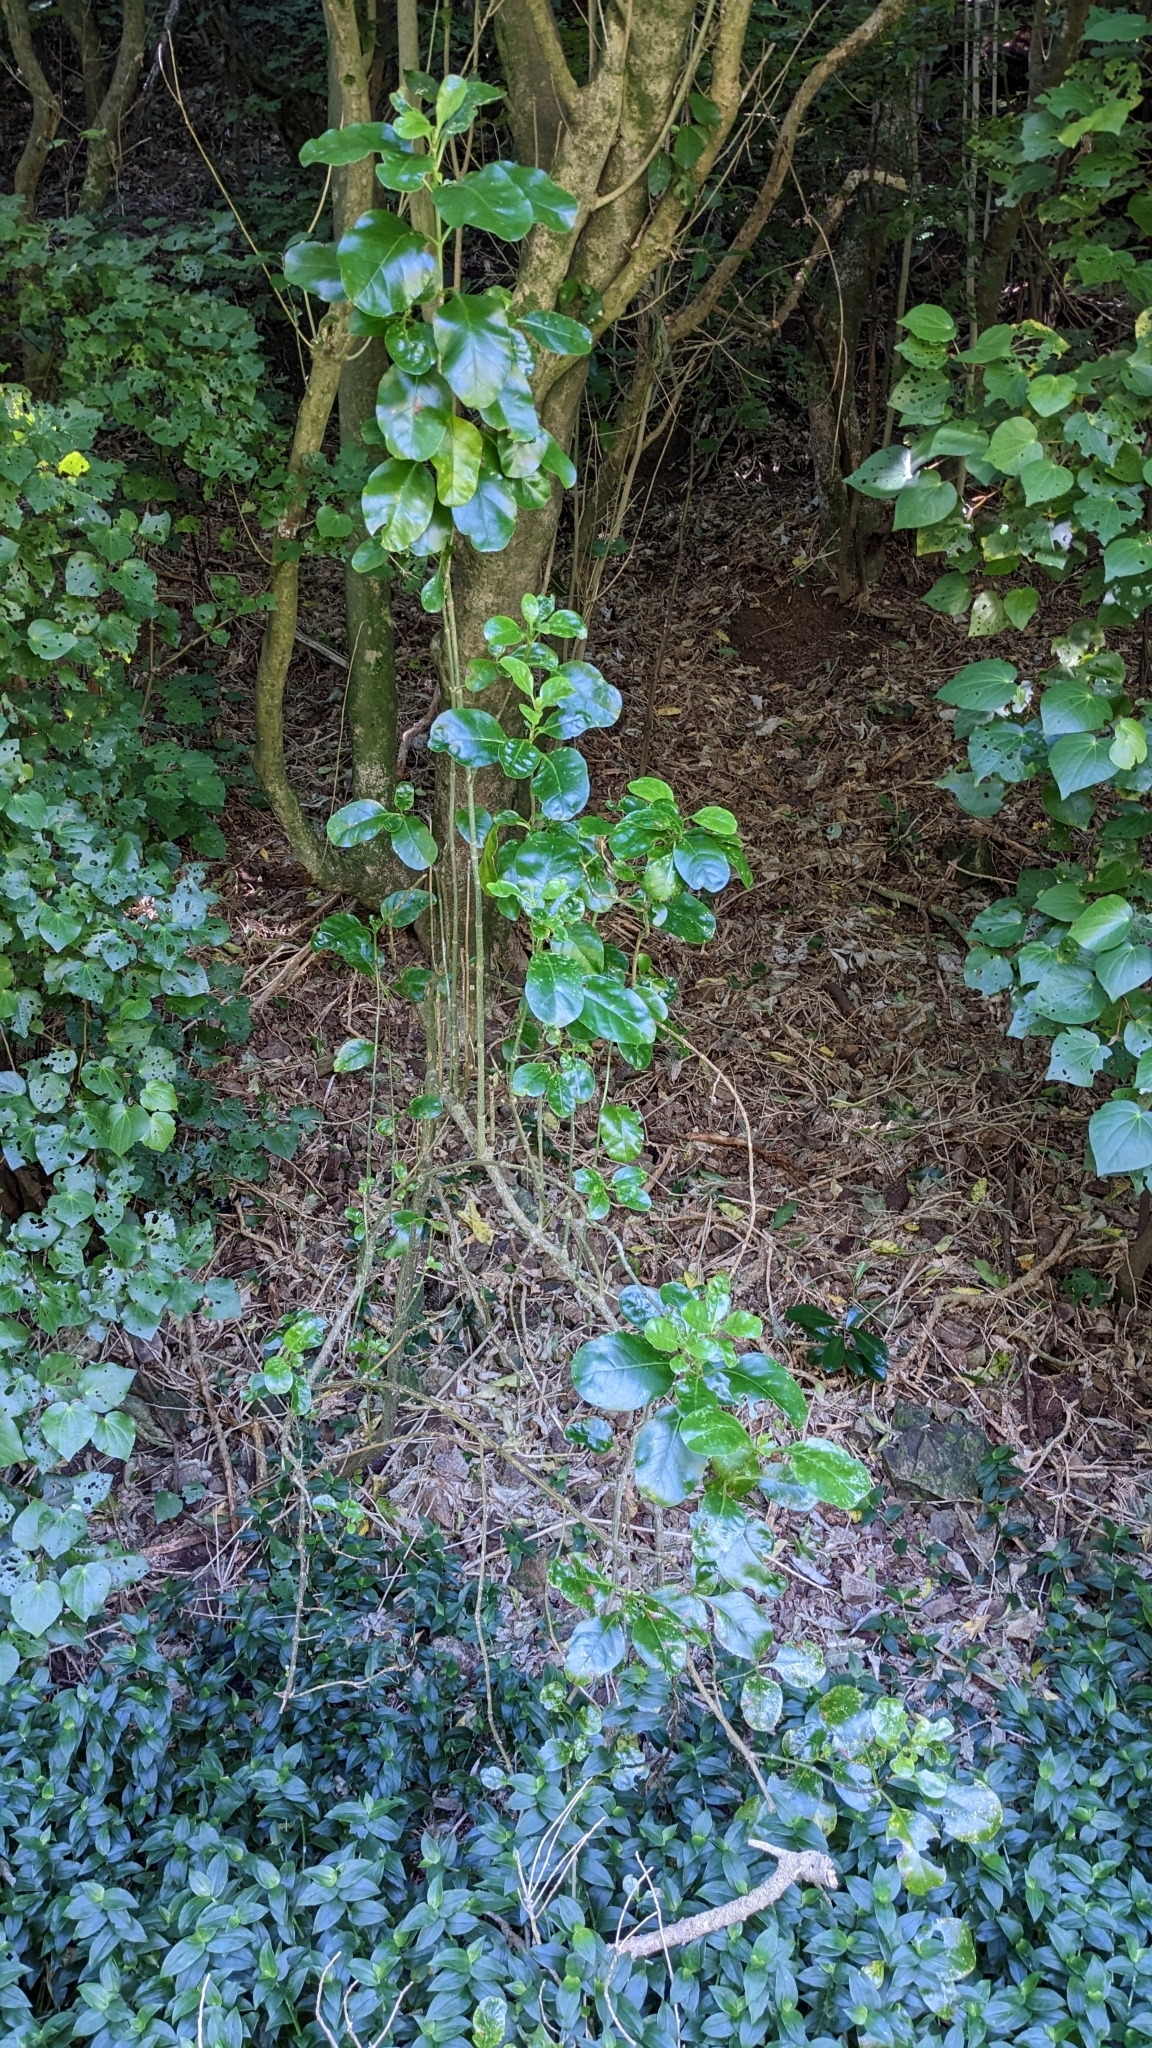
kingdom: Plantae
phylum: Tracheophyta
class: Magnoliopsida
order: Gentianales
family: Rubiaceae
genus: Coprosma
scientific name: Coprosma repens
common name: Tree bedstraw
